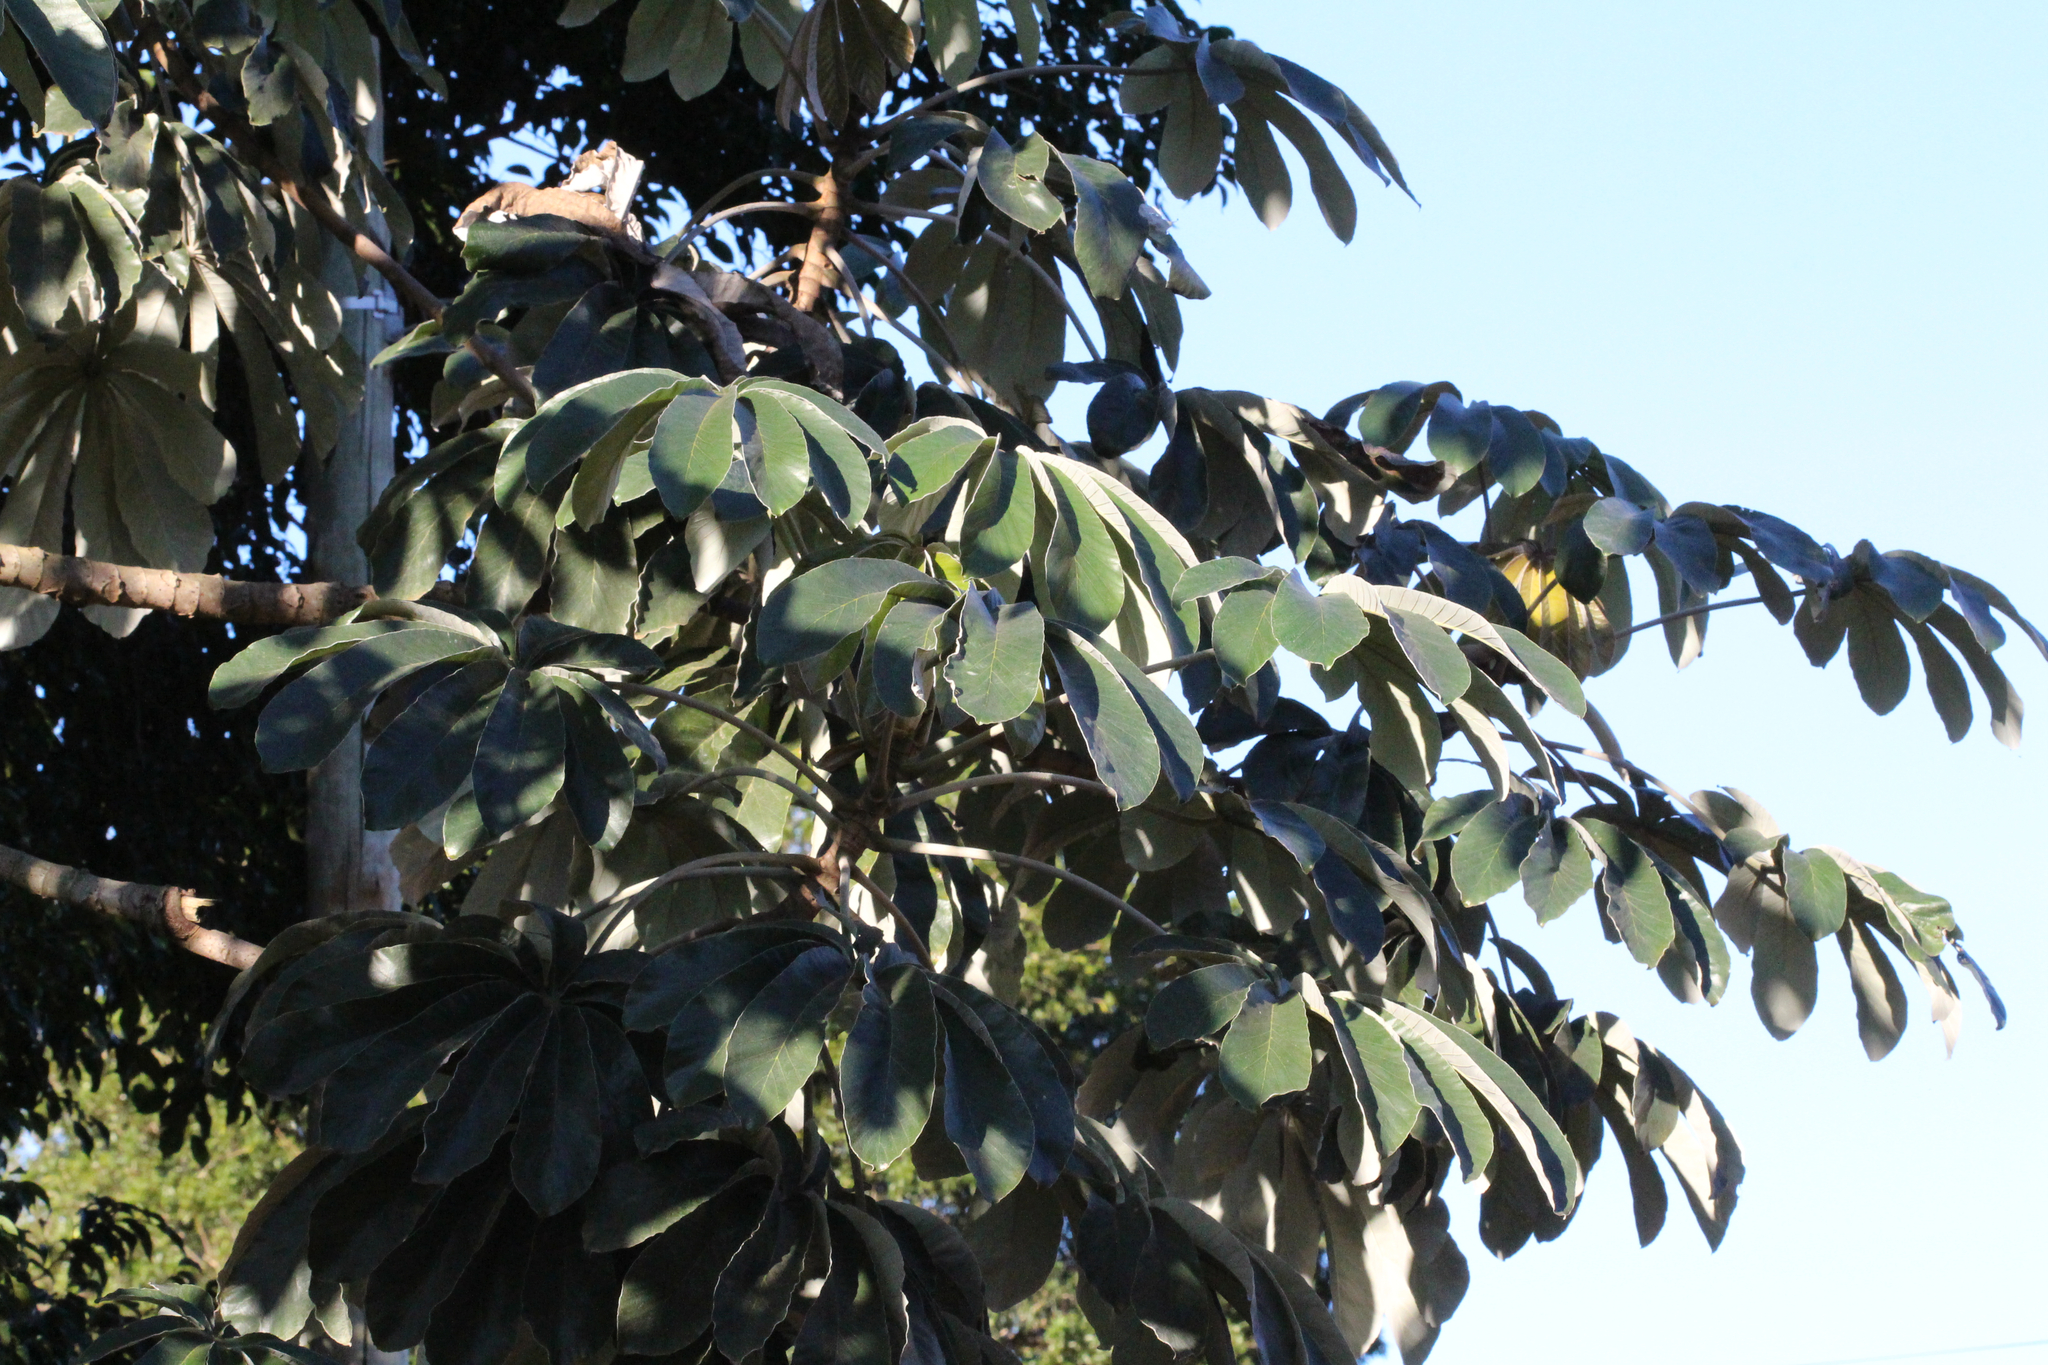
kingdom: Plantae
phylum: Tracheophyta
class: Magnoliopsida
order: Rosales
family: Urticaceae
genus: Cecropia
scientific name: Cecropia pachystachya
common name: Ambay pumpwood
